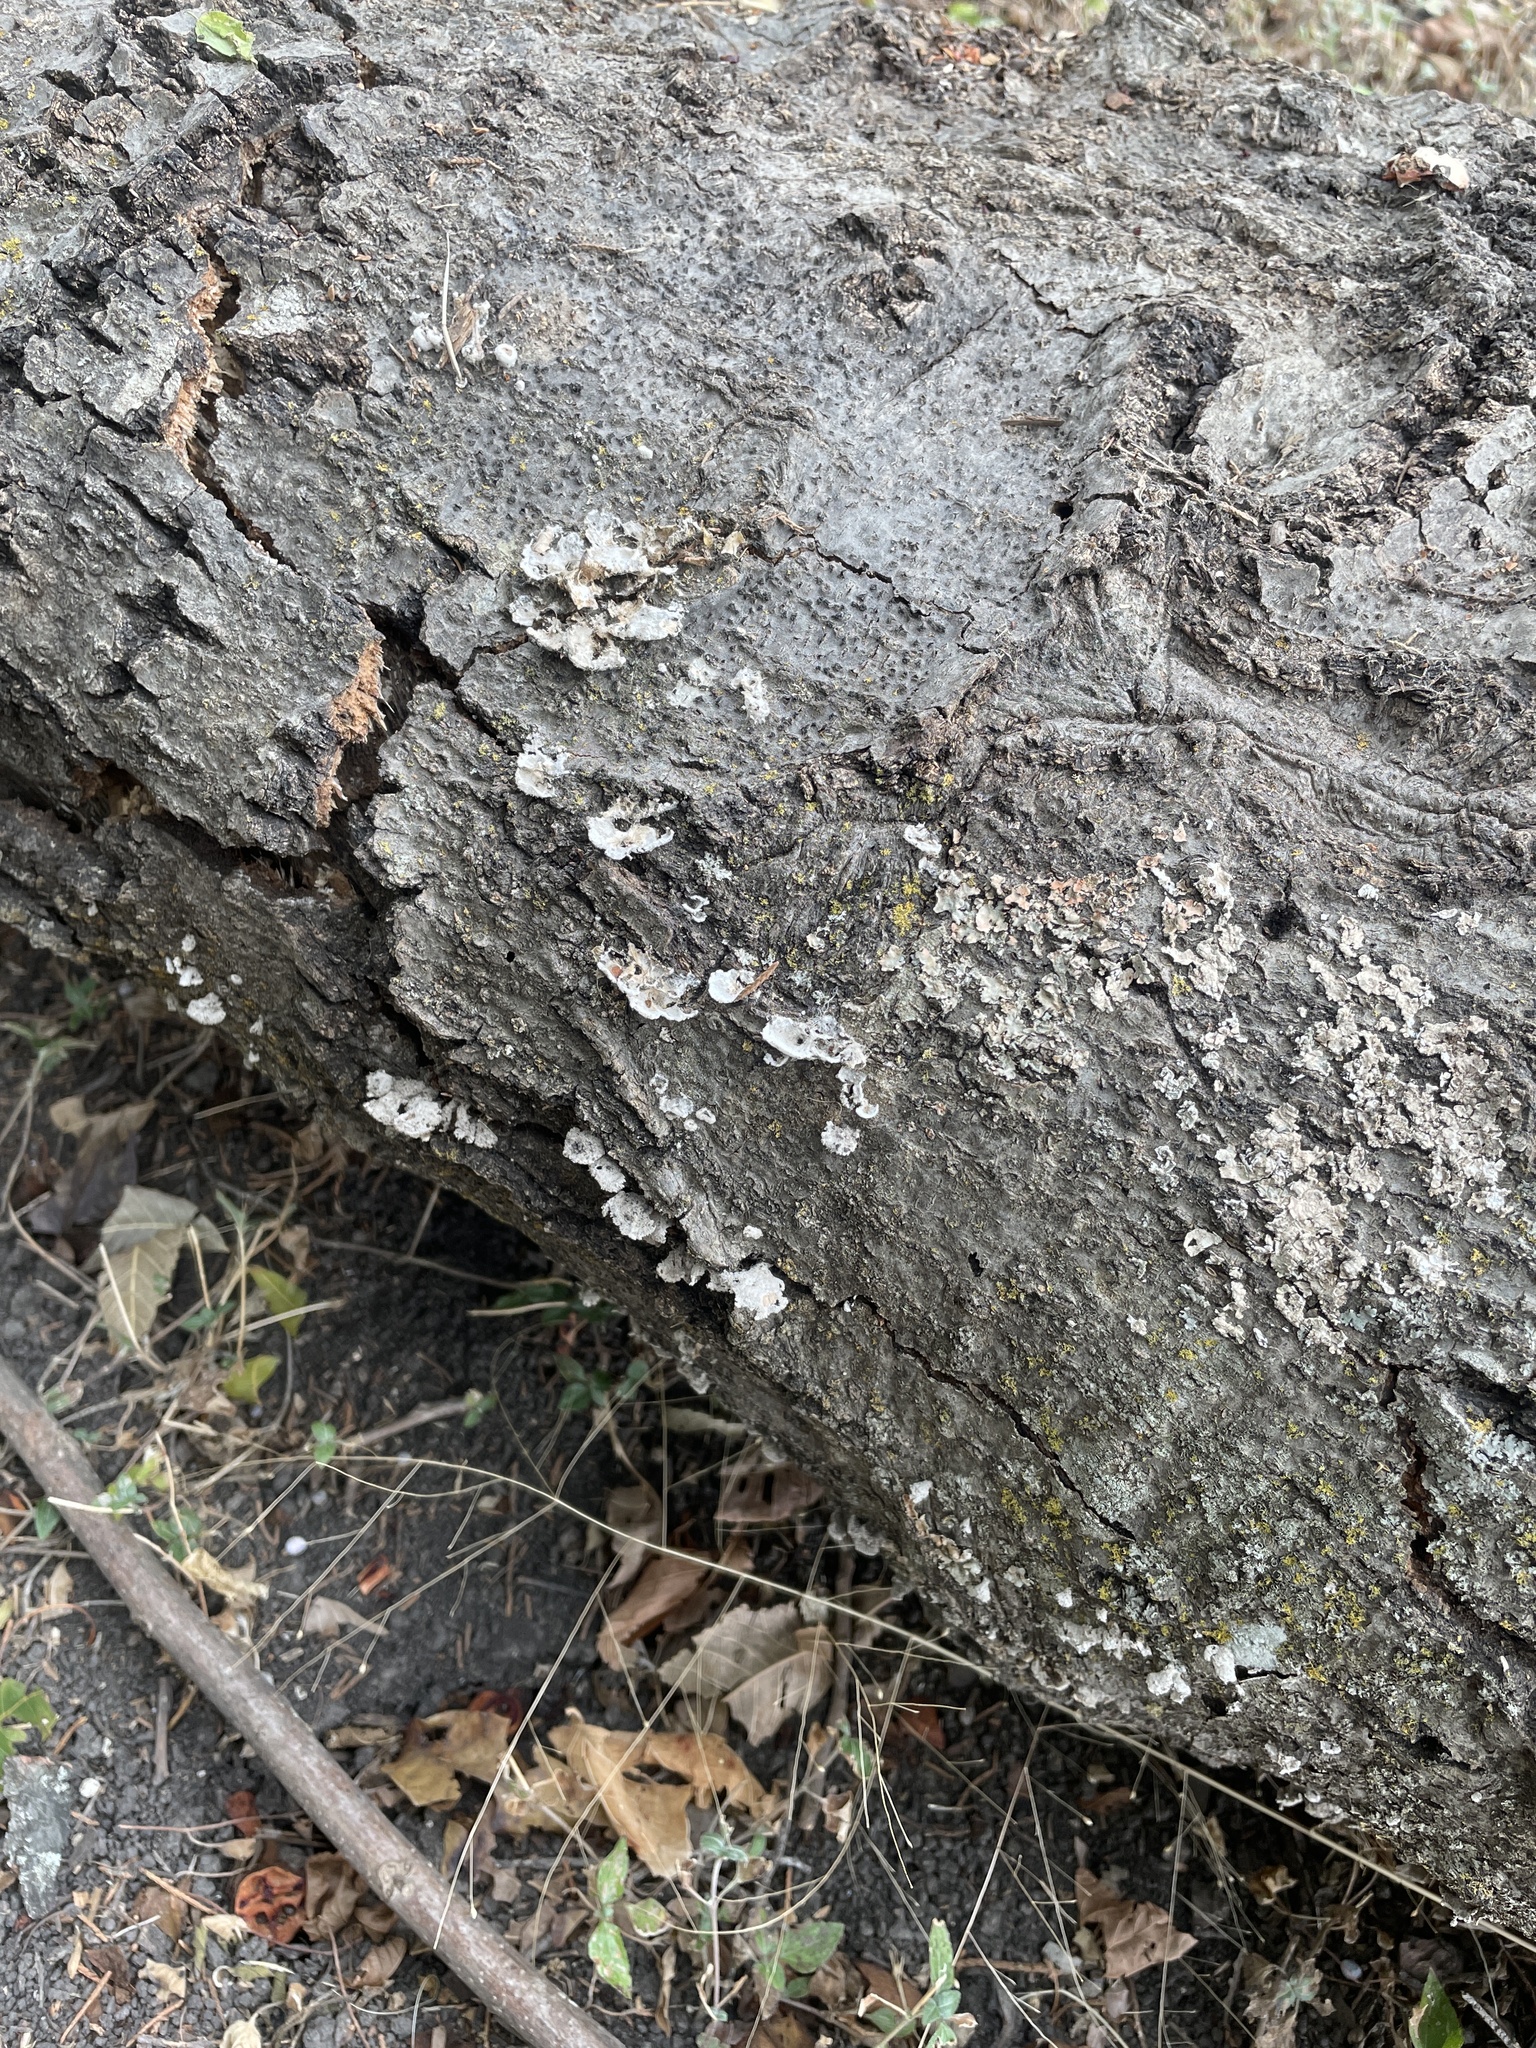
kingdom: Fungi
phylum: Basidiomycota
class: Agaricomycetes
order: Agaricales
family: Schizophyllaceae
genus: Schizophyllum
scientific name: Schizophyllum commune
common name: Common porecrust
